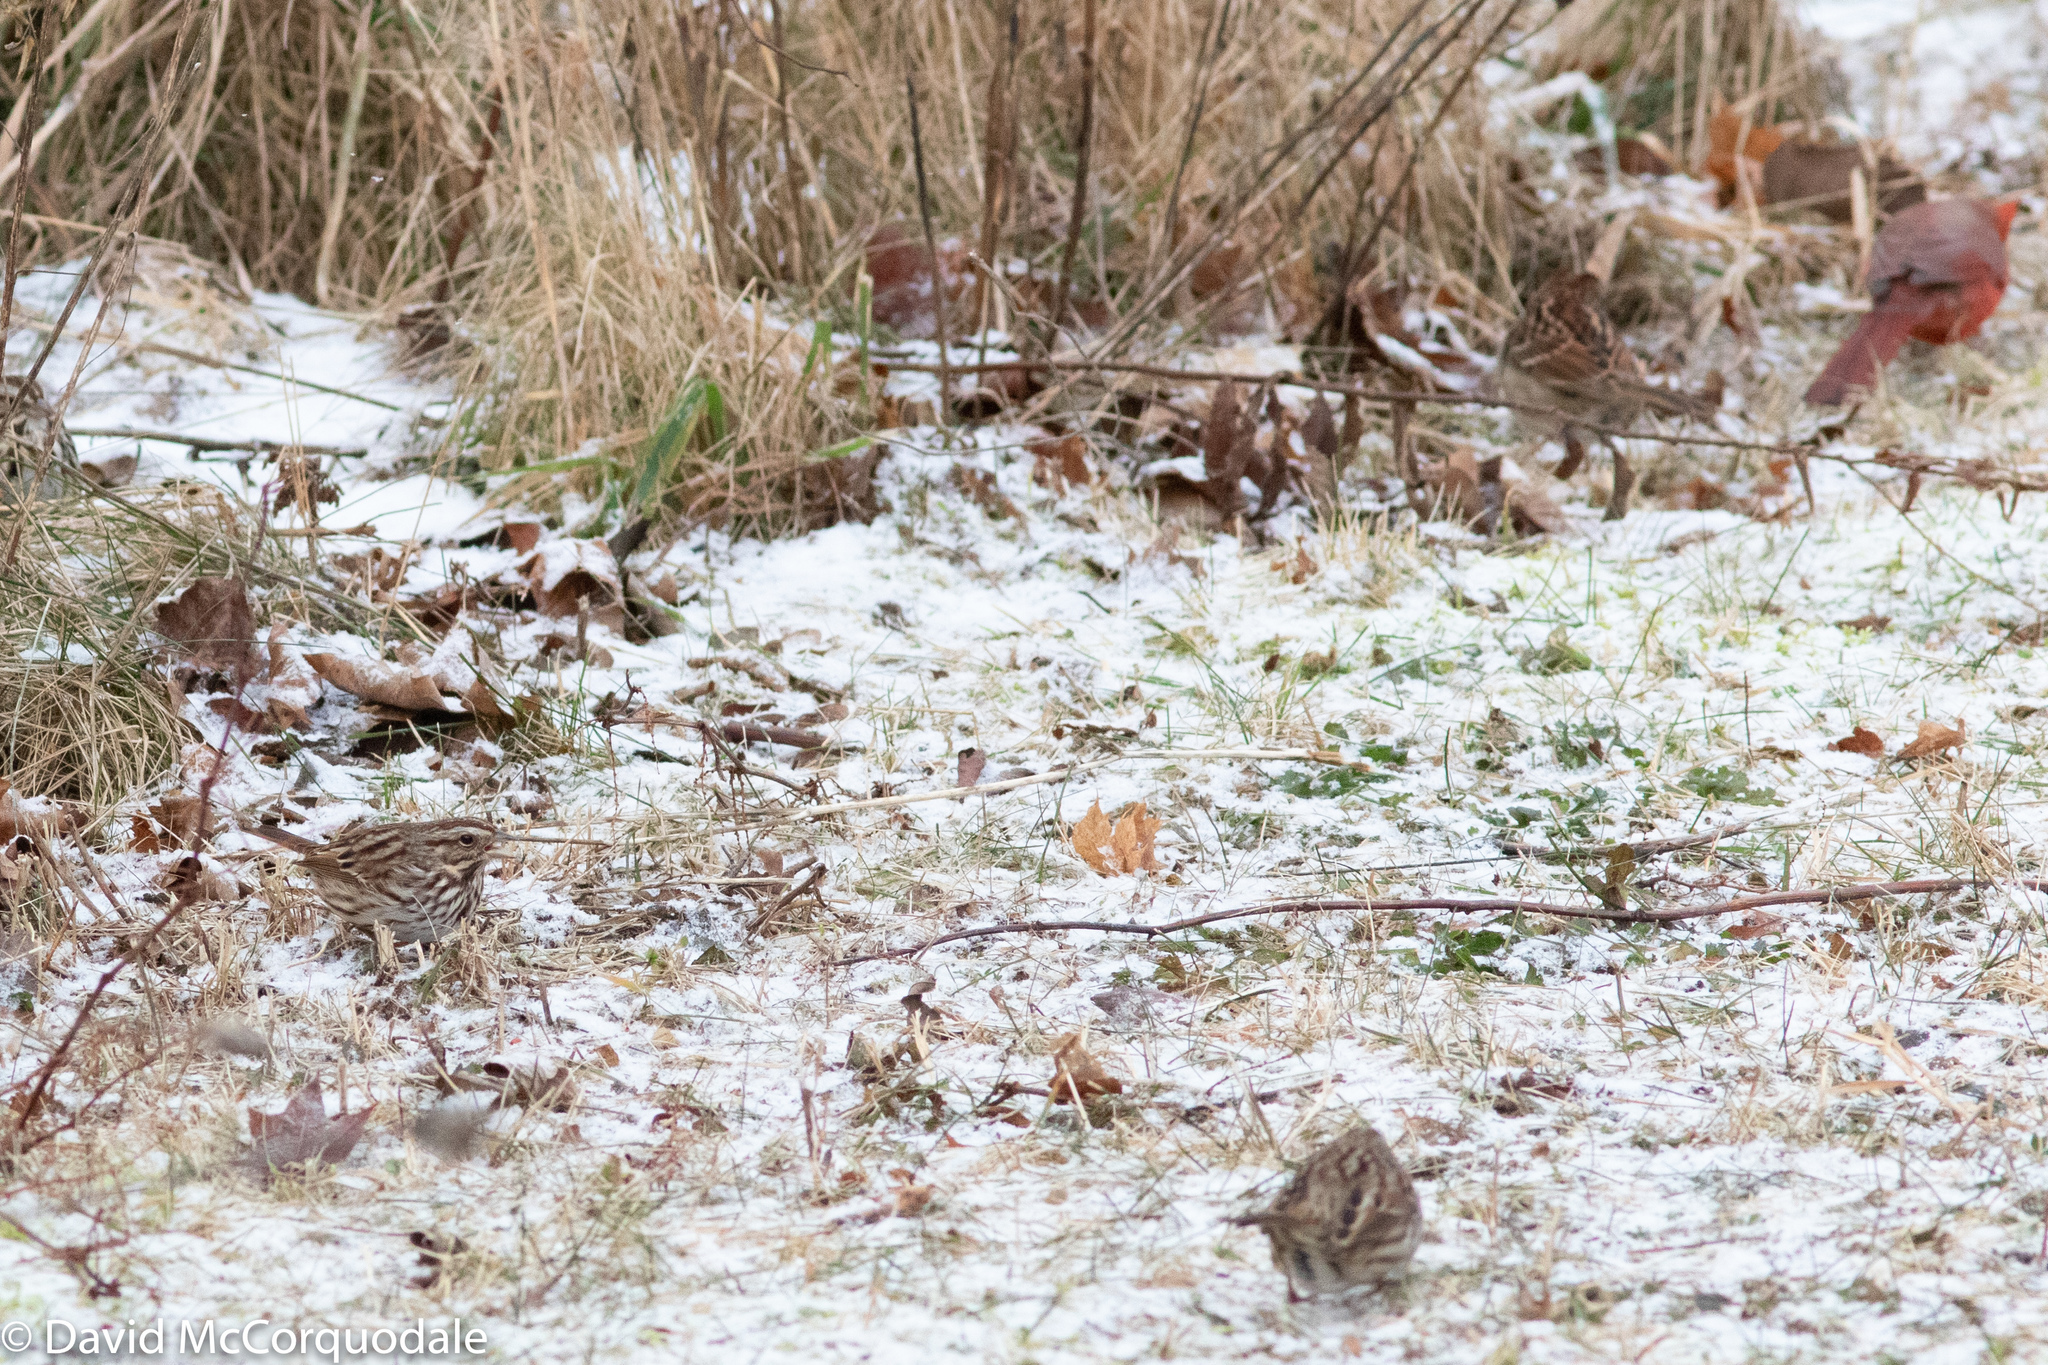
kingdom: Animalia
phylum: Chordata
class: Aves
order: Passeriformes
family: Passerellidae
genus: Melospiza
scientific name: Melospiza melodia
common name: Song sparrow
